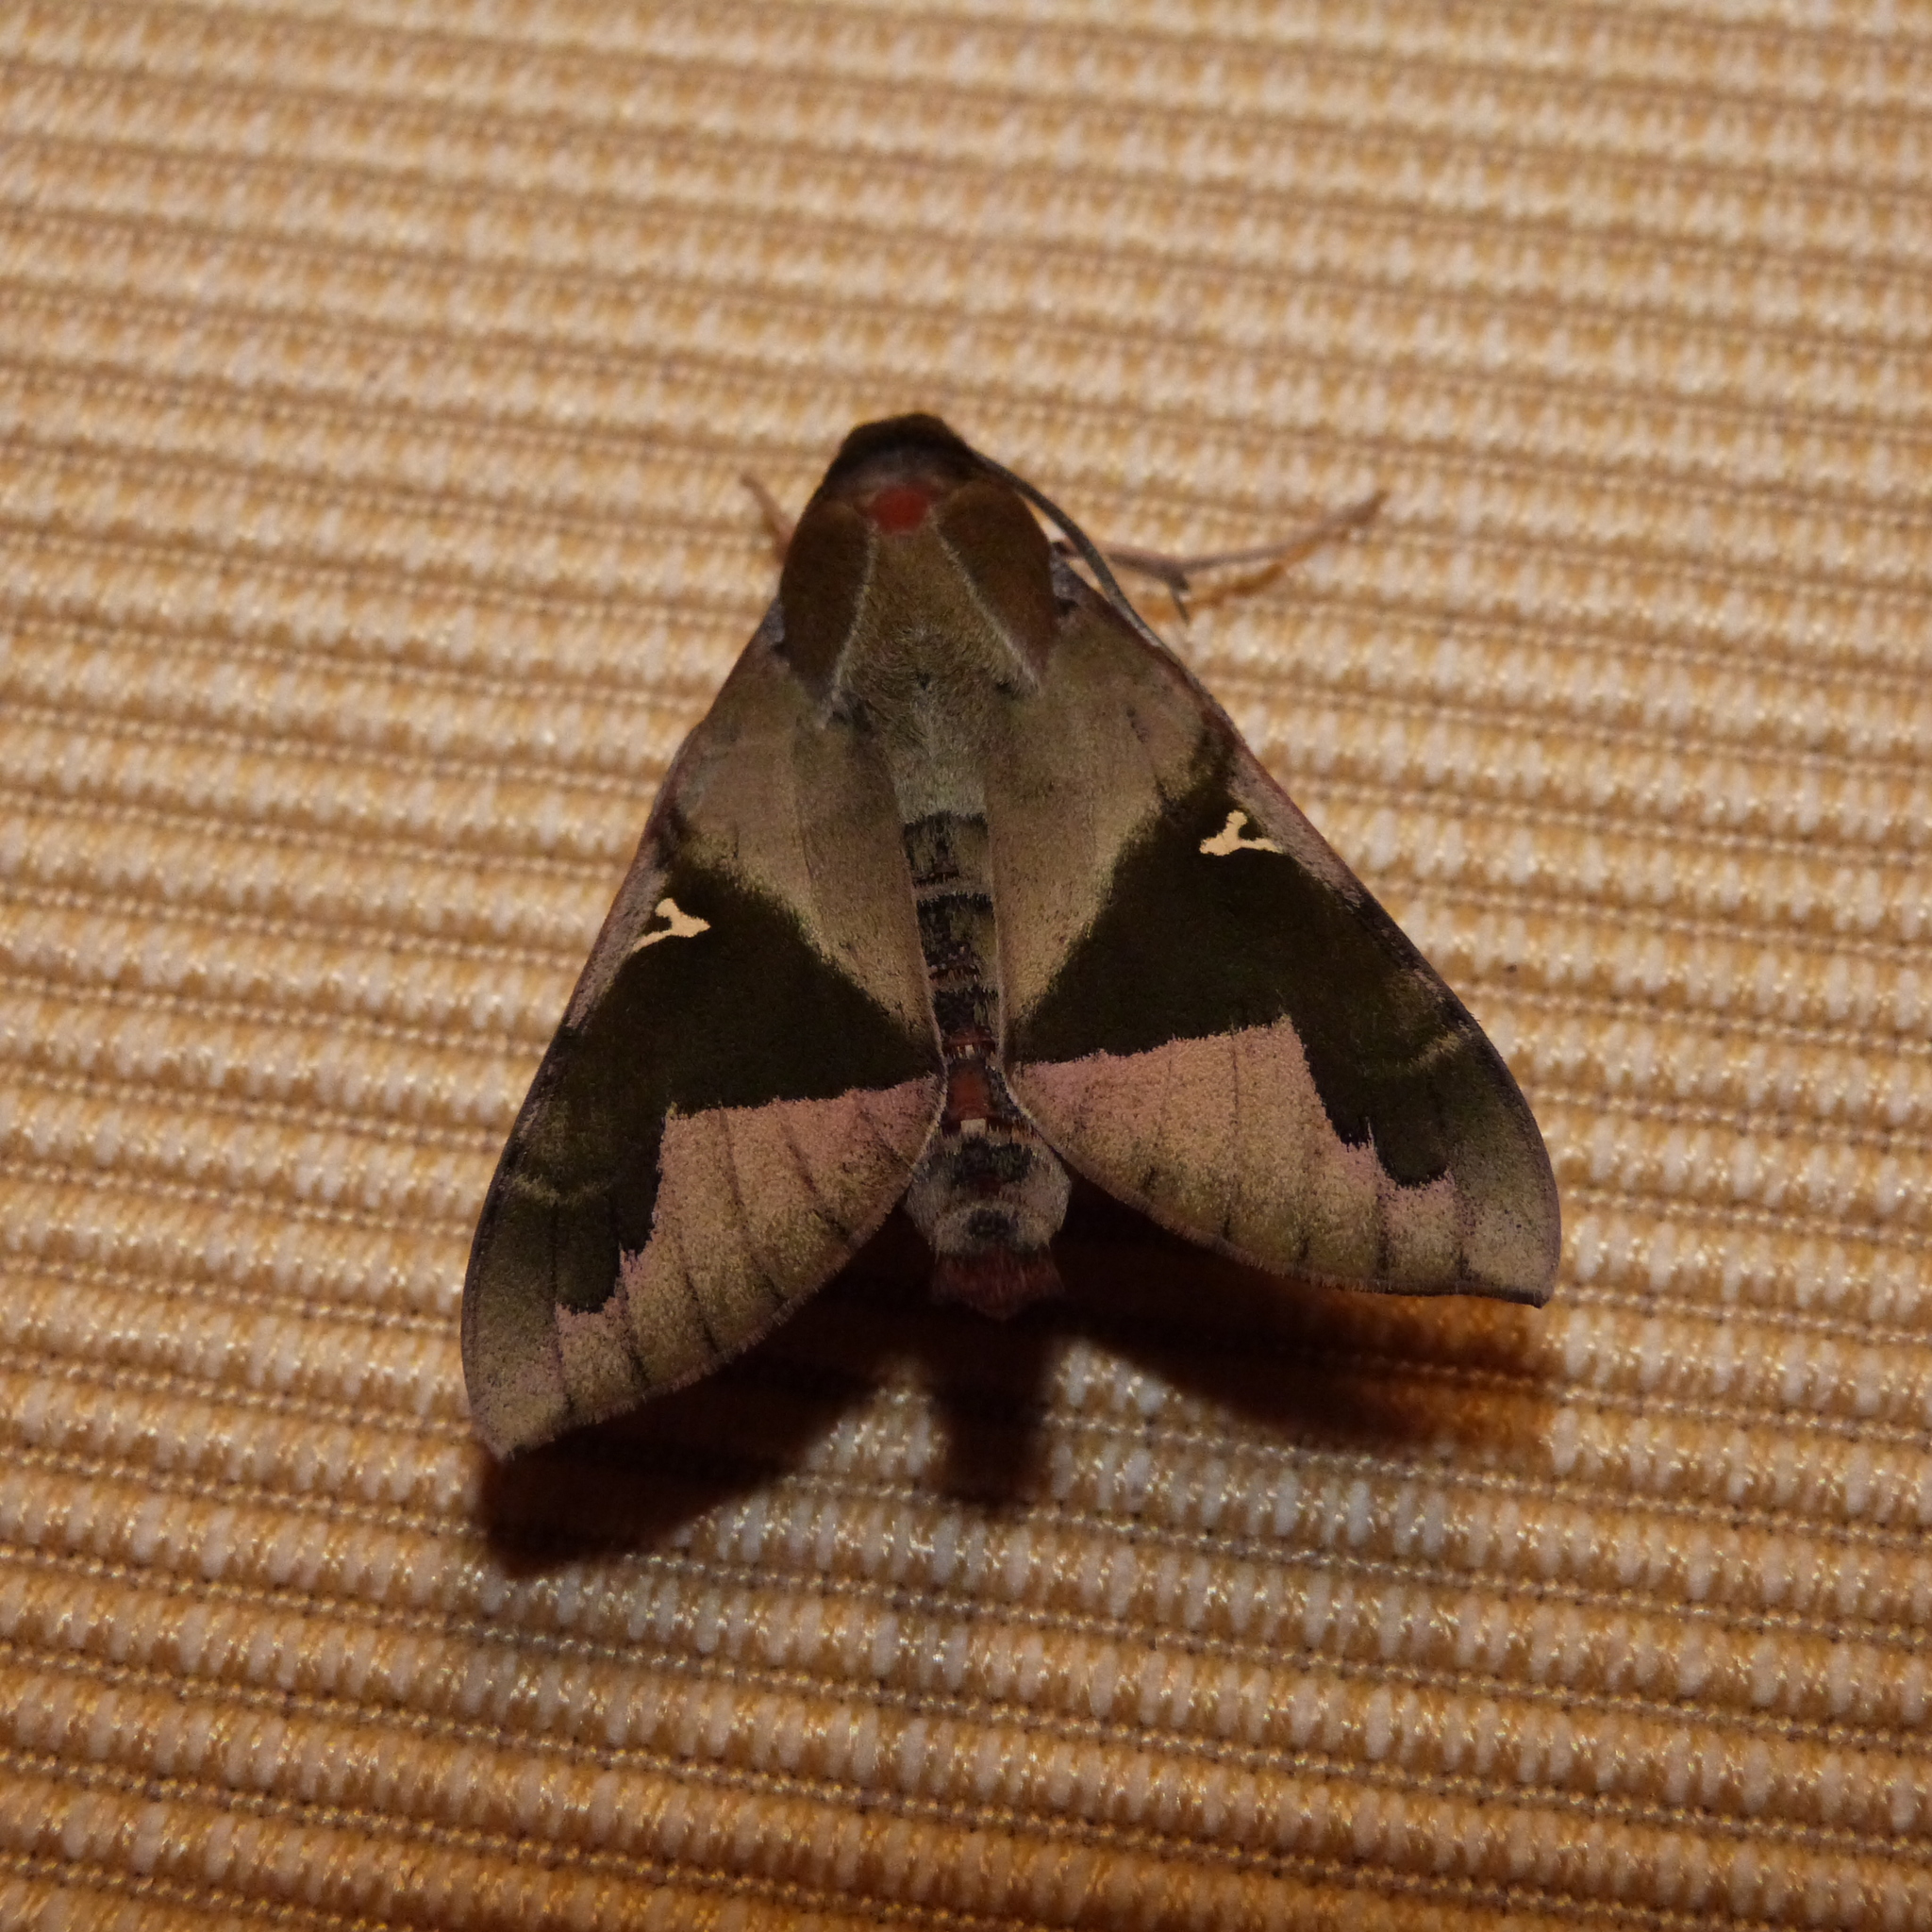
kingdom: Animalia
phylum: Arthropoda
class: Insecta
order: Lepidoptera
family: Sphingidae
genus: Nephele
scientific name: Nephele vau
